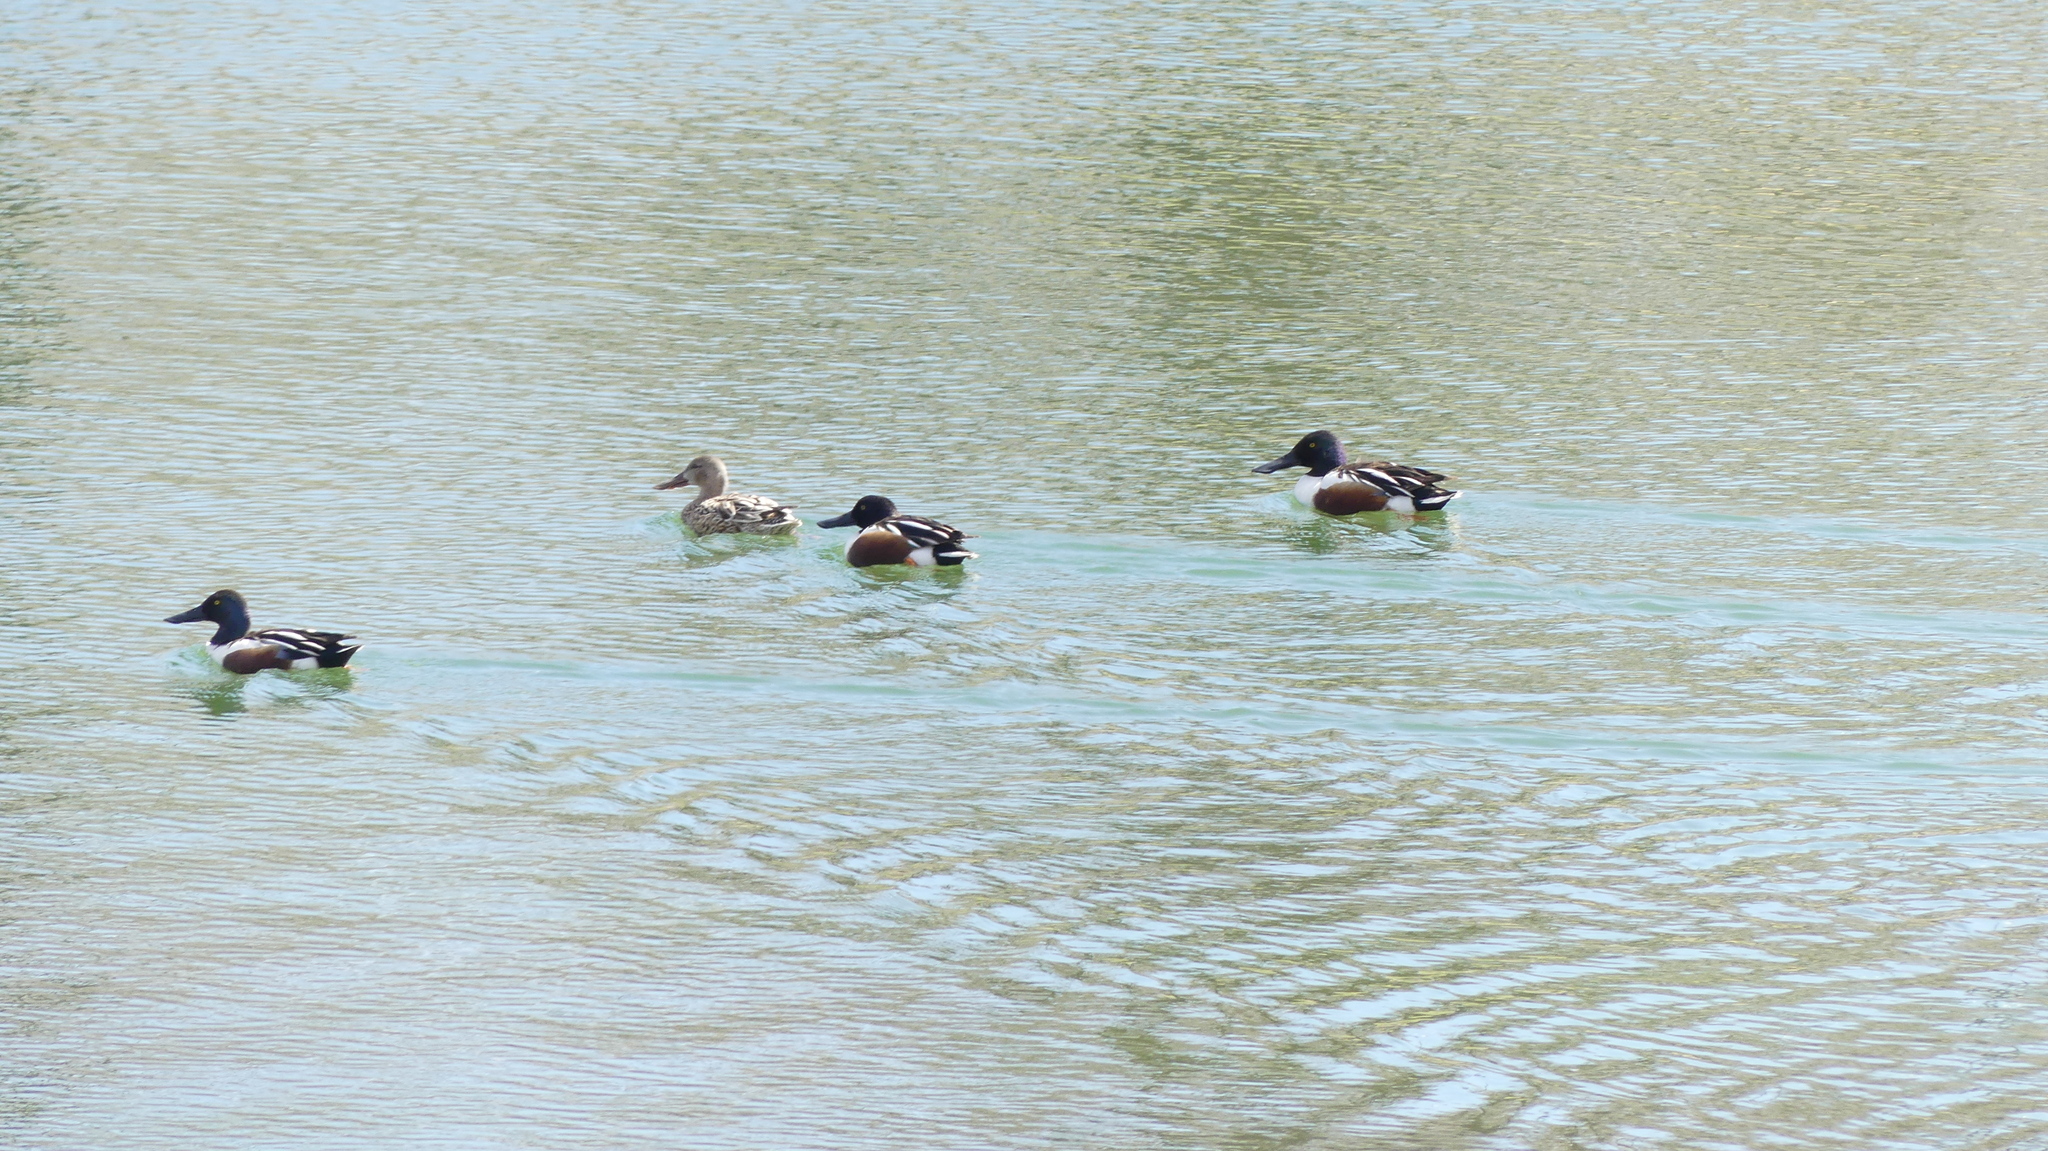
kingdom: Animalia
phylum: Chordata
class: Aves
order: Anseriformes
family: Anatidae
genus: Spatula
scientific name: Spatula clypeata
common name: Northern shoveler
